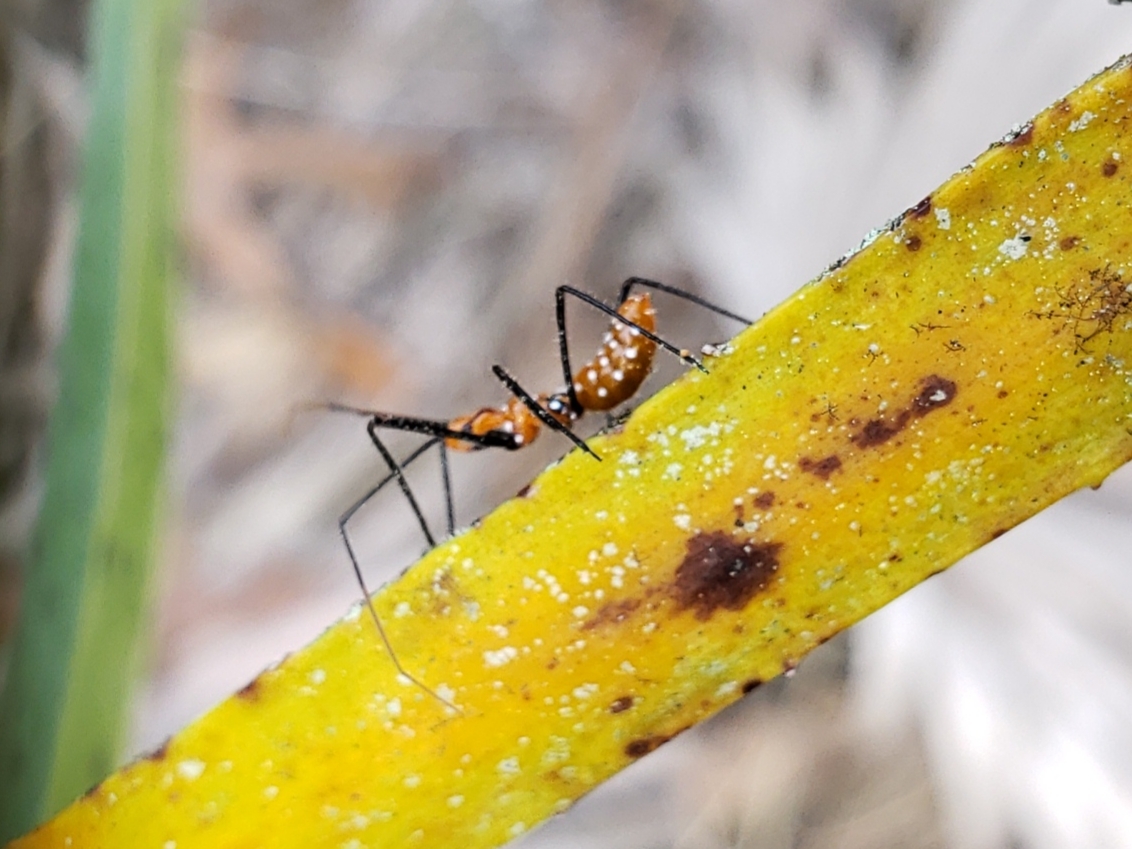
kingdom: Animalia
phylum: Arthropoda
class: Insecta
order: Hemiptera
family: Reduviidae
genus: Zelus
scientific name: Zelus longipes
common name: Milkweed assassin bug
